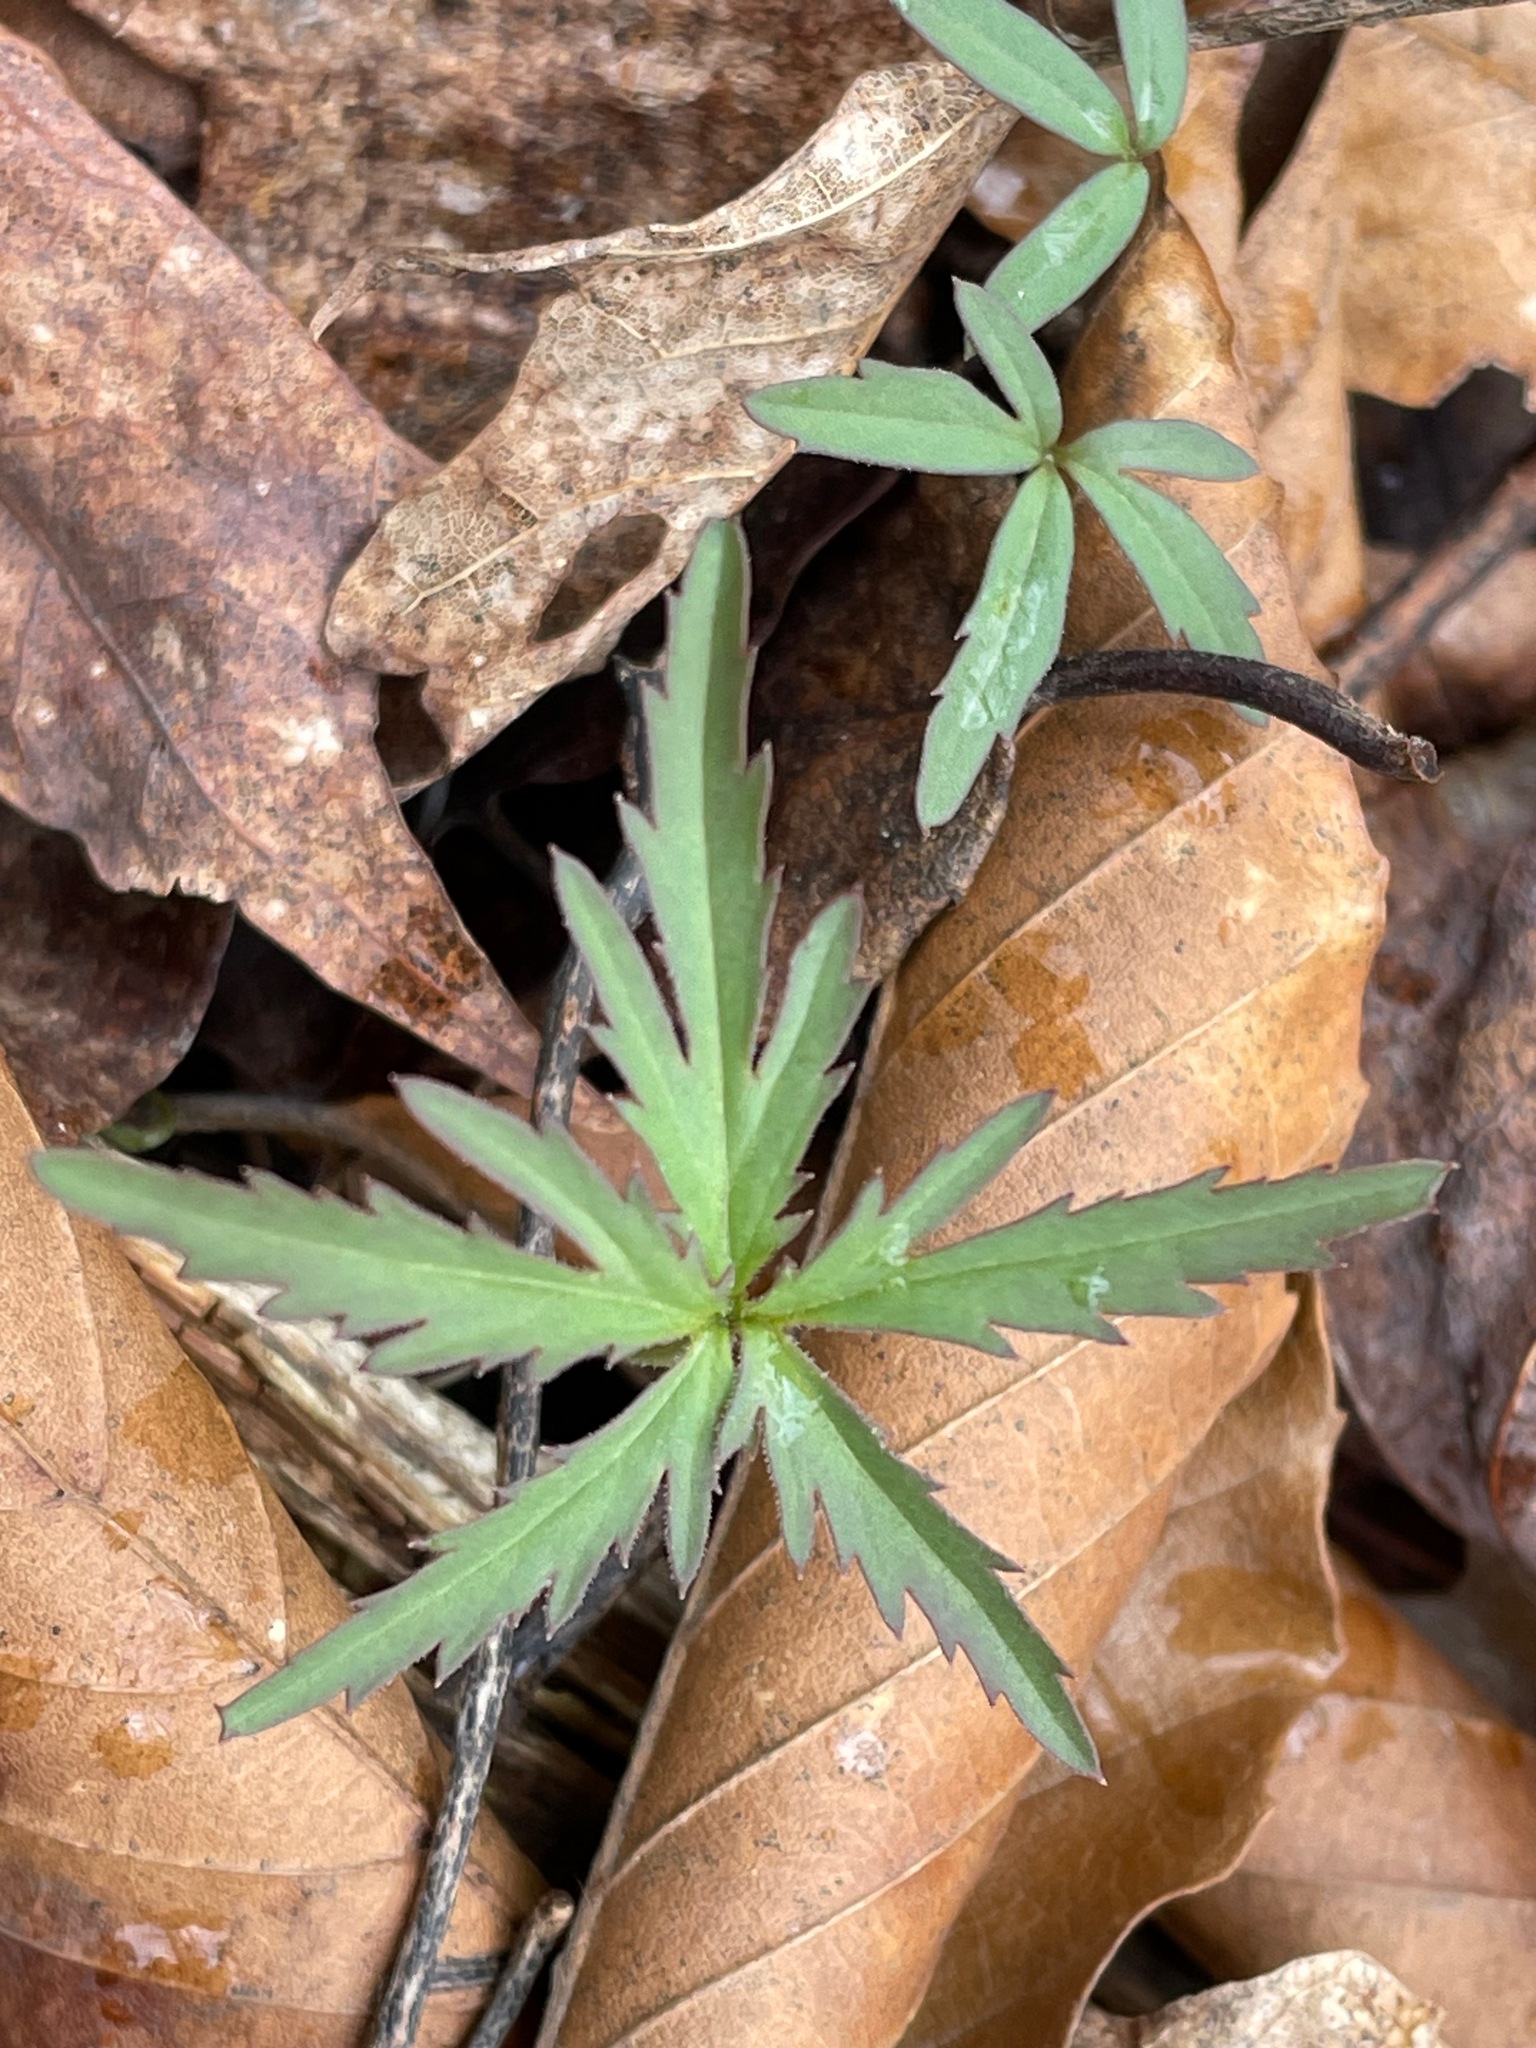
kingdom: Plantae
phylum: Tracheophyta
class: Magnoliopsida
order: Brassicales
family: Brassicaceae
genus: Cardamine
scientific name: Cardamine concatenata
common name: Cut-leaf toothcup
